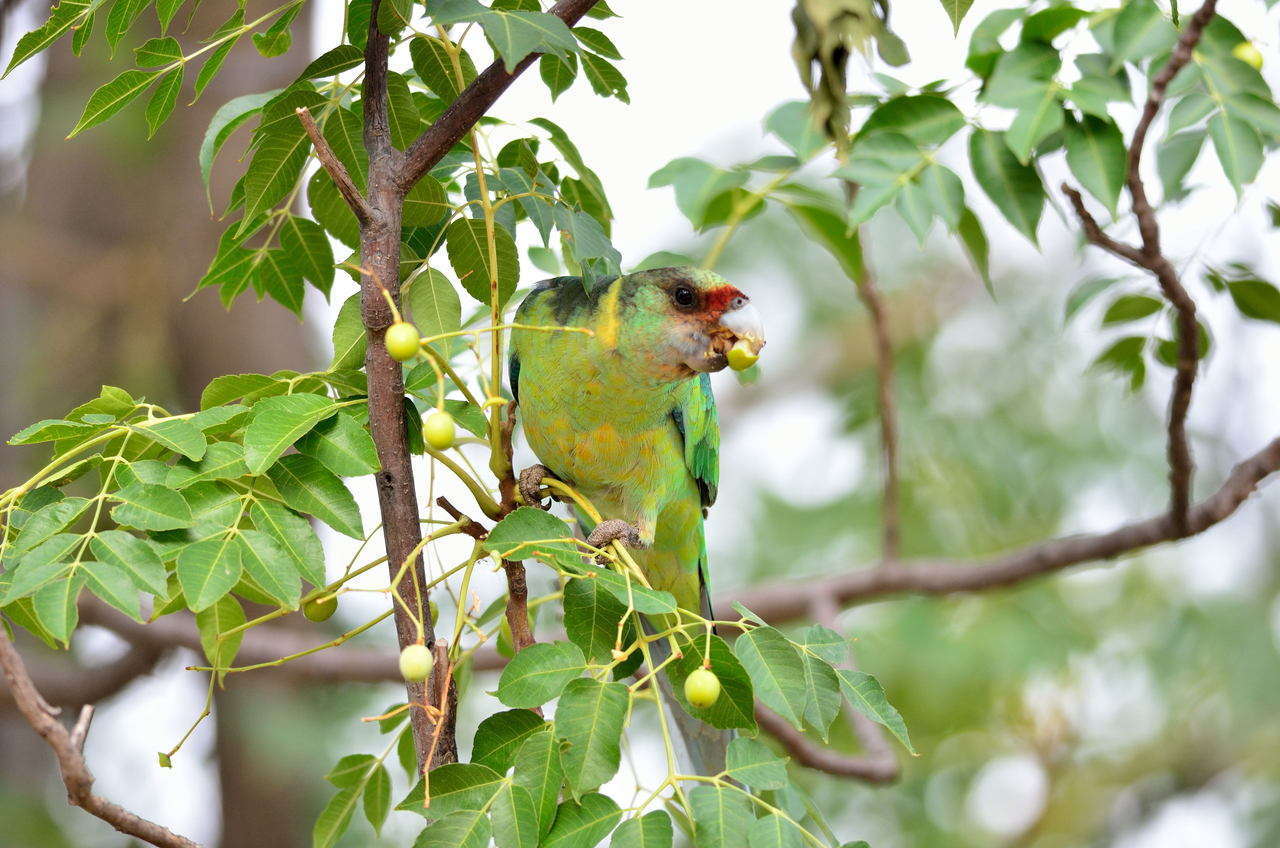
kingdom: Animalia
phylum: Chordata
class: Aves
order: Psittaciformes
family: Psittacidae
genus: Barnardius
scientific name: Barnardius zonarius
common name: Australian ringneck
